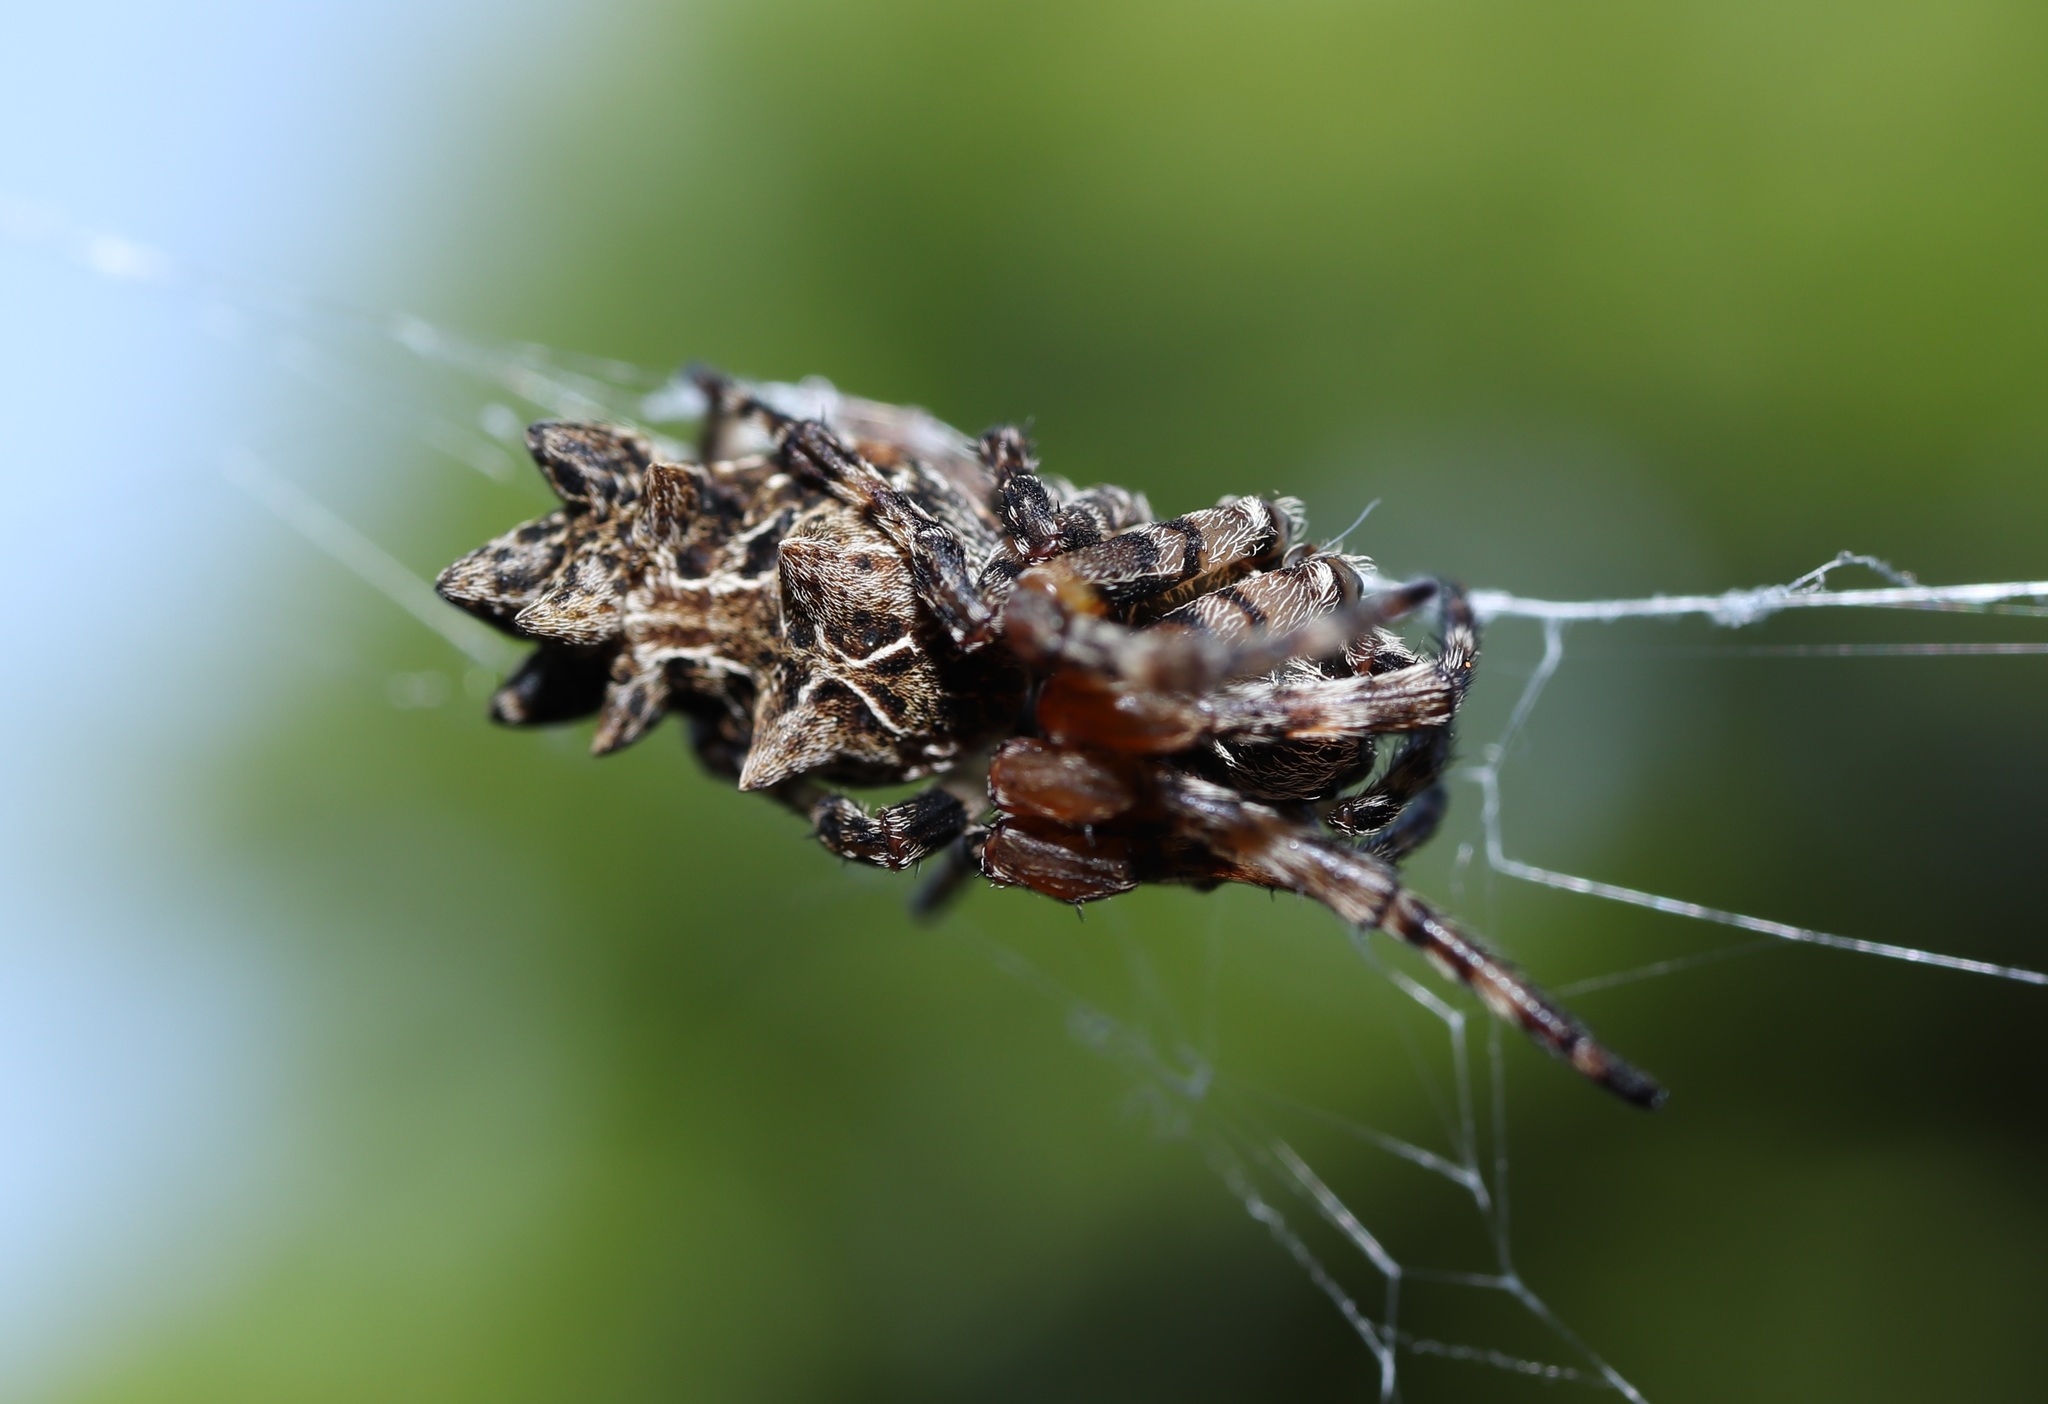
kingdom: Animalia
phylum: Arthropoda
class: Arachnida
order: Araneae
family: Araneidae
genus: Cyclosa
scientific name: Cyclosa octotuberculata
